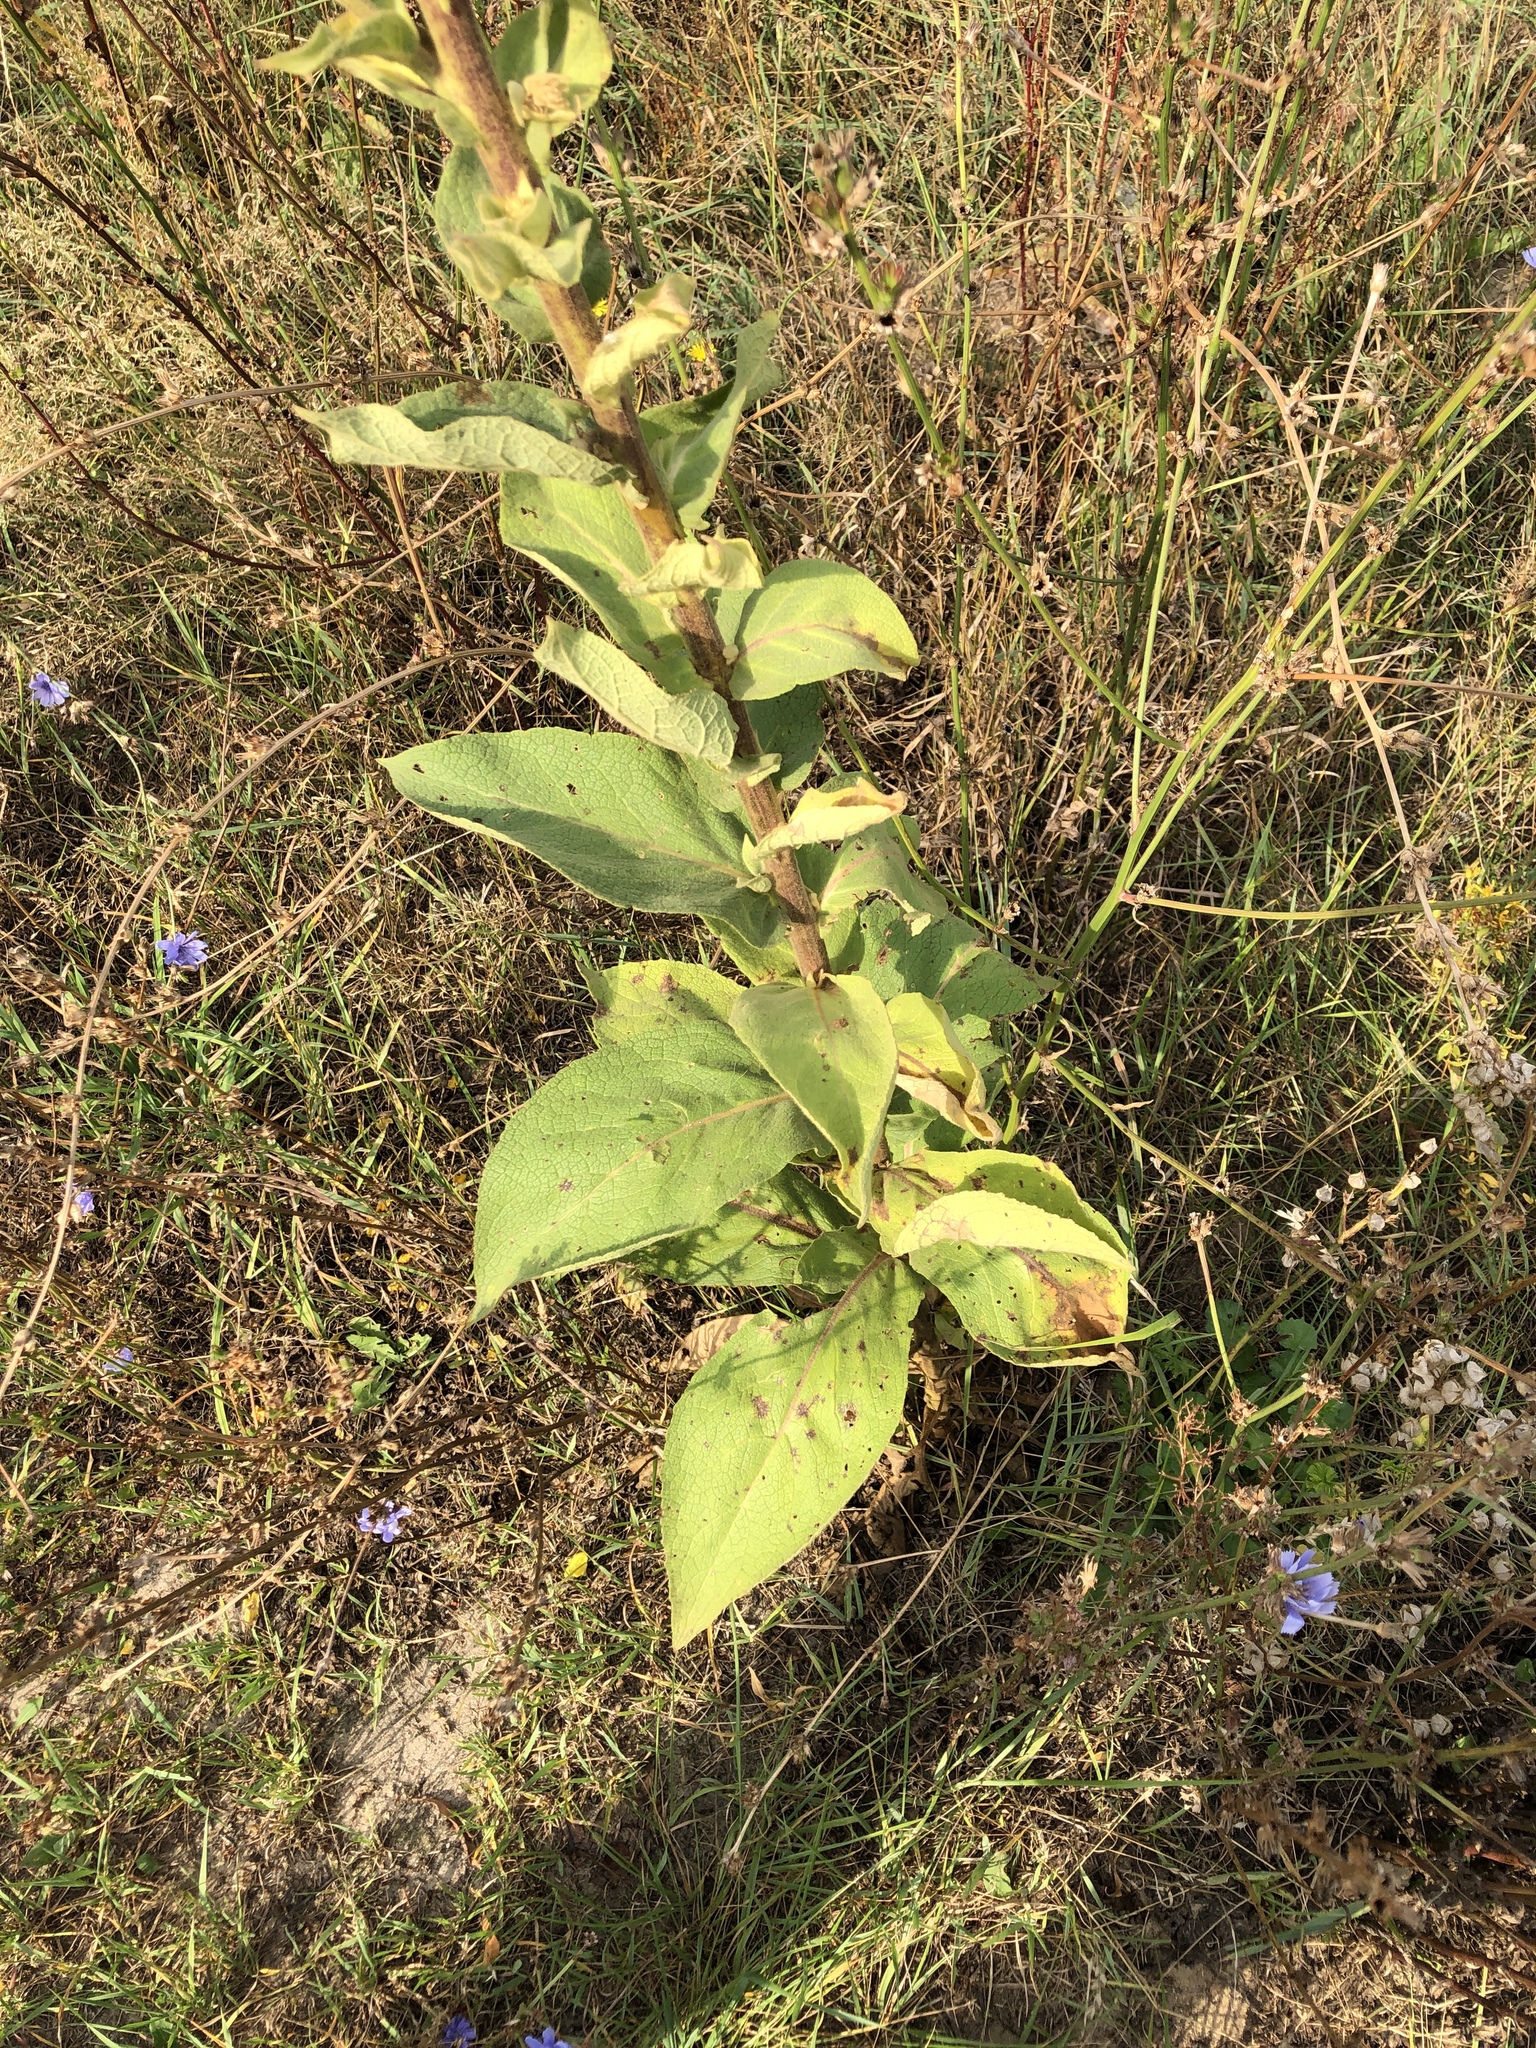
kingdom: Plantae
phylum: Tracheophyta
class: Magnoliopsida
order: Lamiales
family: Scrophulariaceae
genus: Verbascum
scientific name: Verbascum phlomoides
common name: Orange mullein
